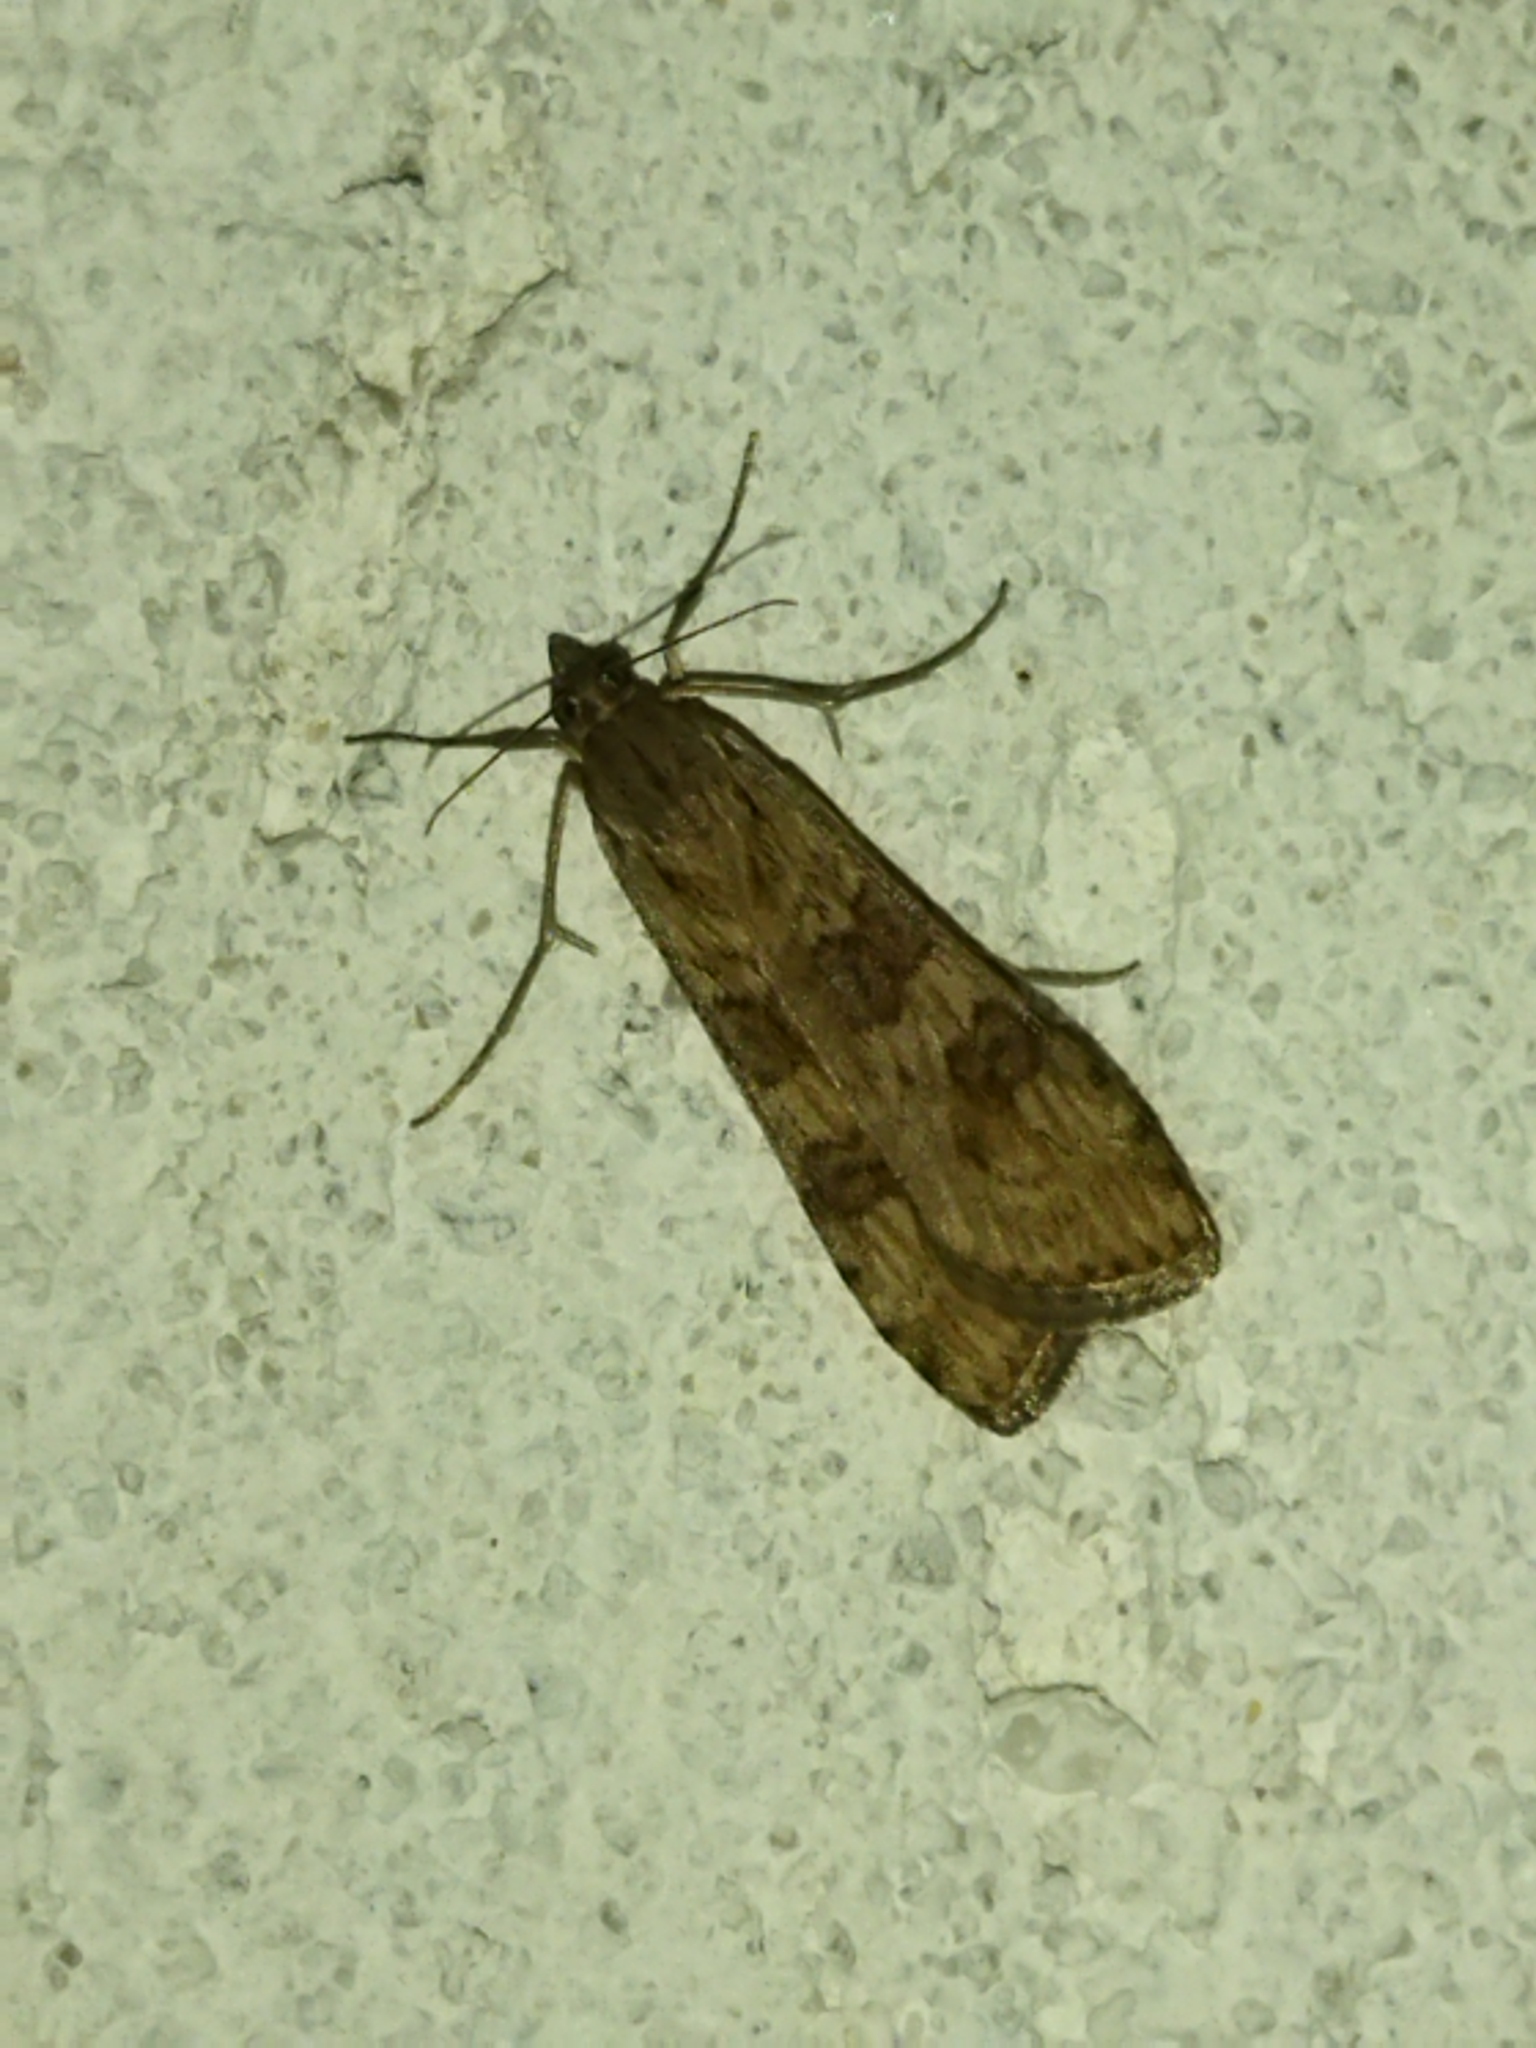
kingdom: Animalia
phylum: Arthropoda
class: Insecta
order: Lepidoptera
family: Crambidae
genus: Nomophila
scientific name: Nomophila noctuella
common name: Rush veneer
